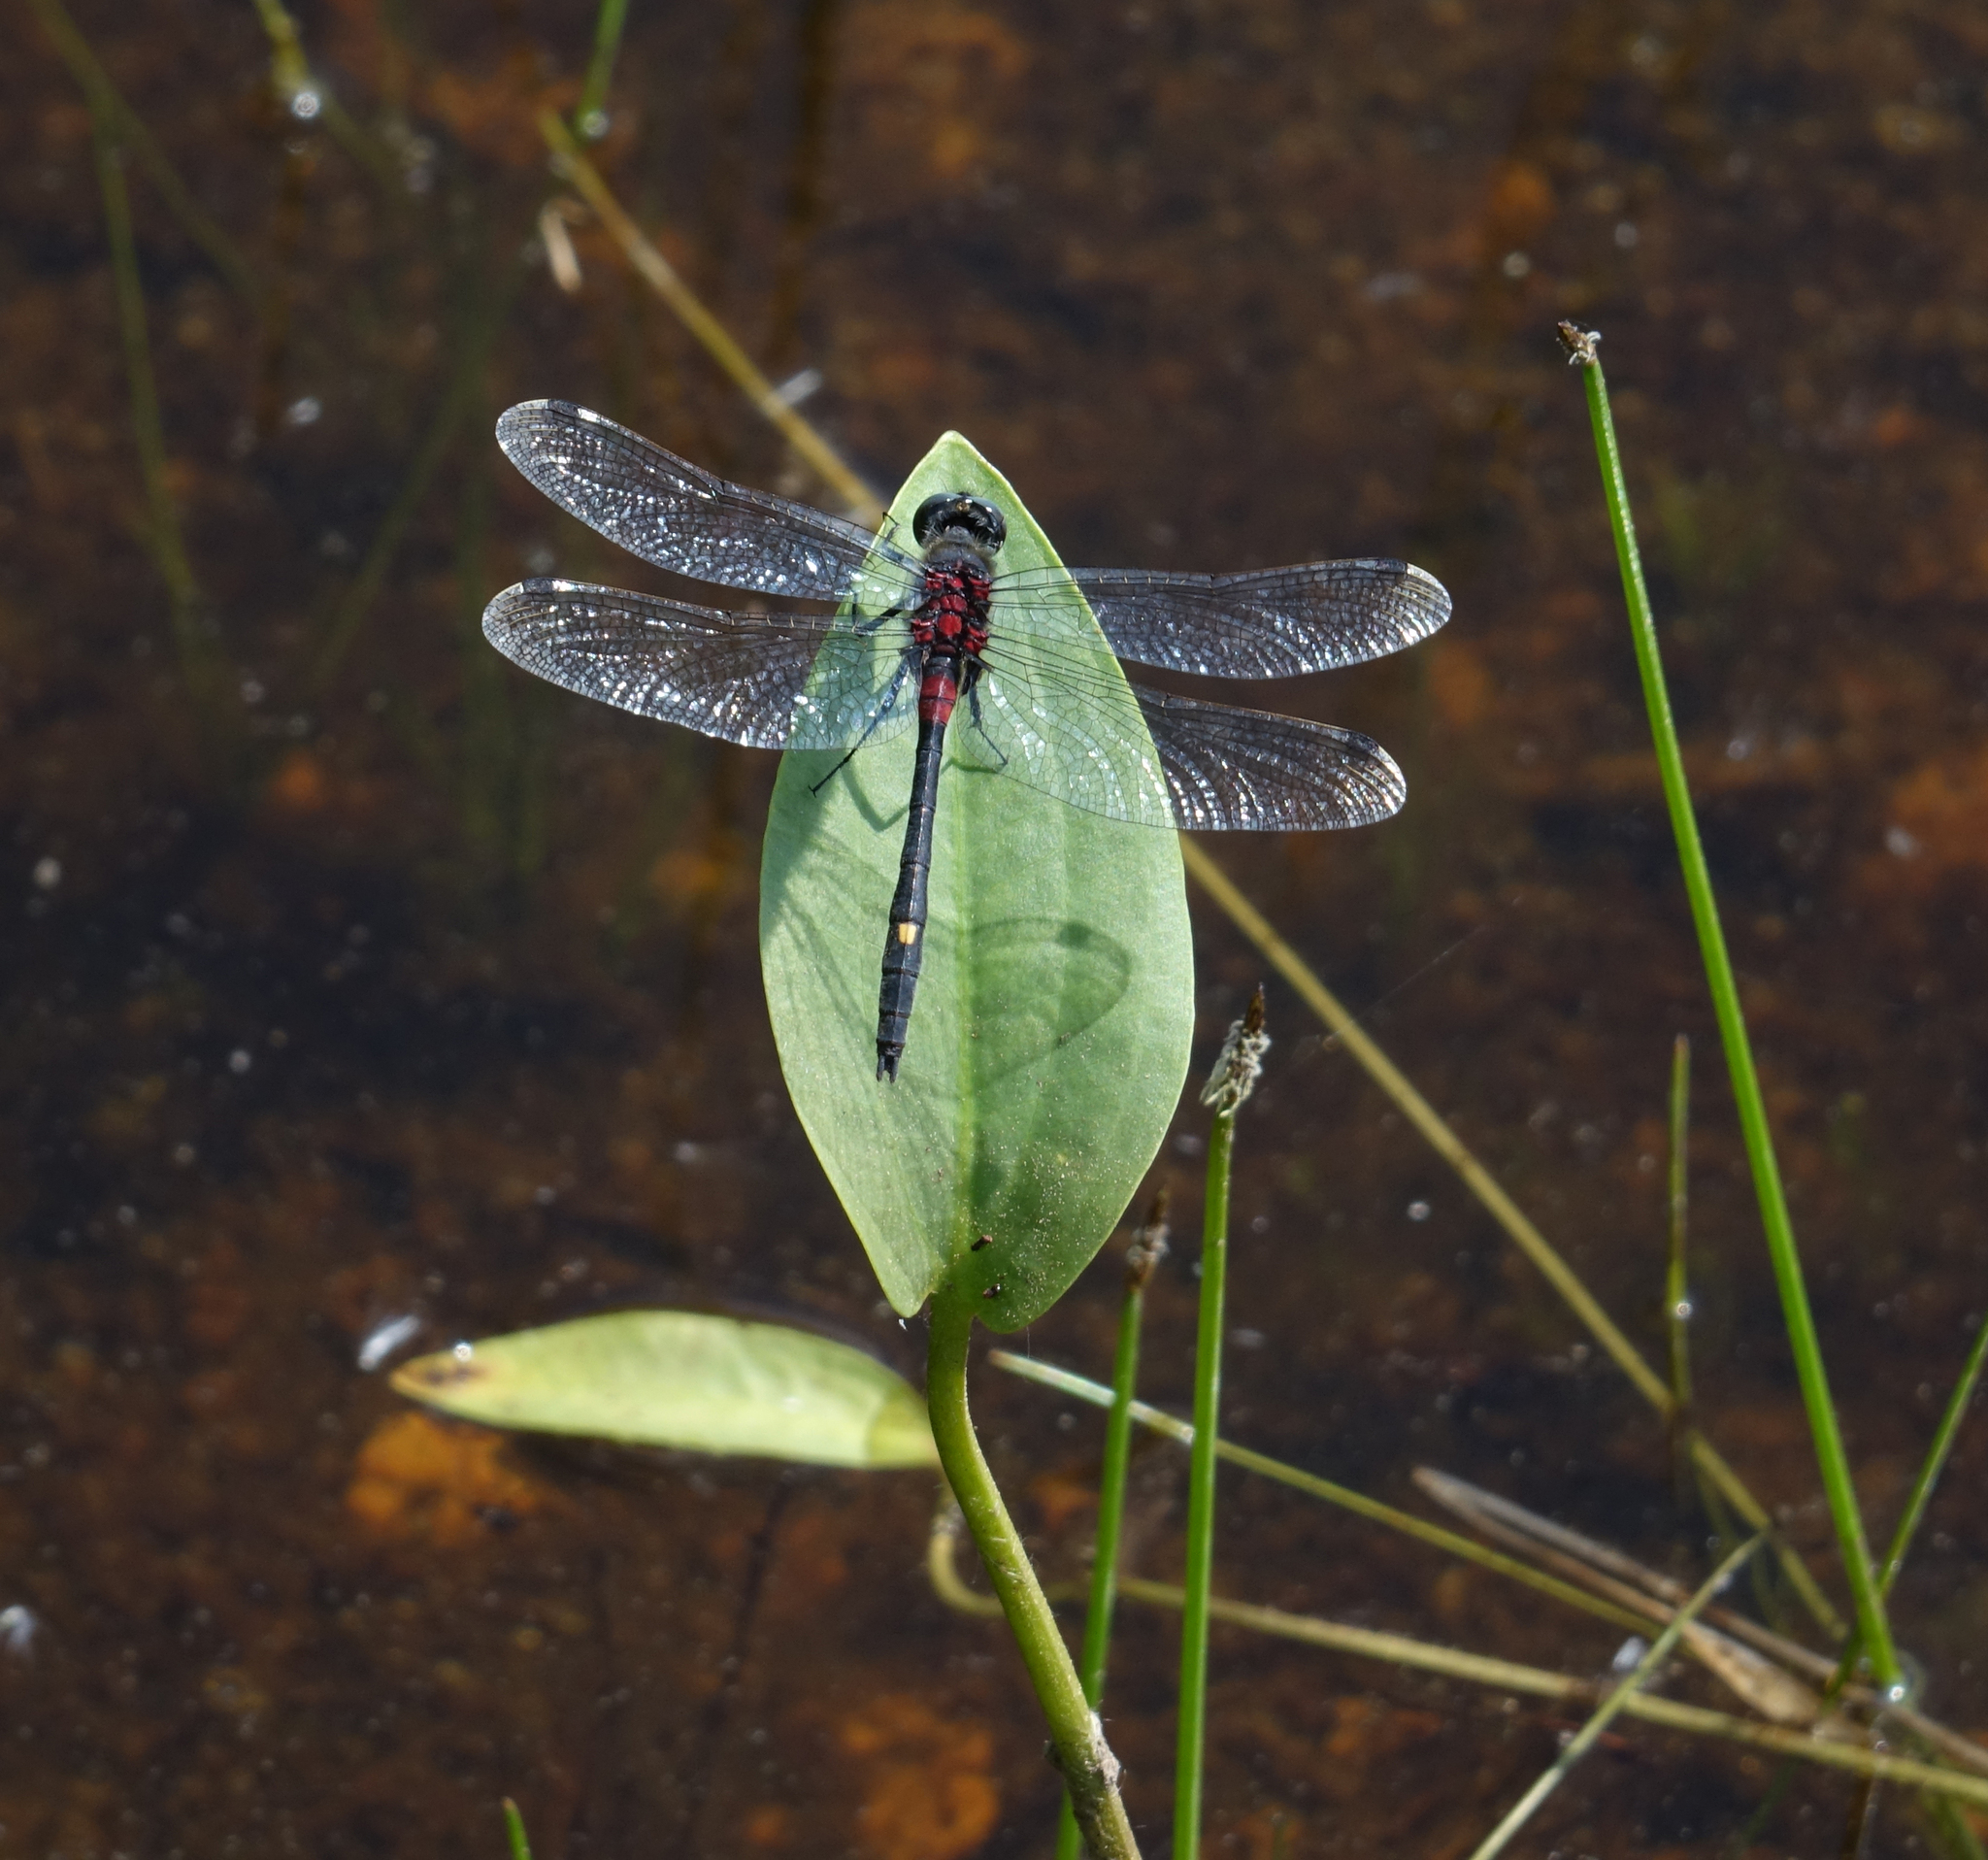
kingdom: Animalia
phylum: Arthropoda
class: Insecta
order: Odonata
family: Libellulidae
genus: Leucorrhinia
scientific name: Leucorrhinia orientalis
